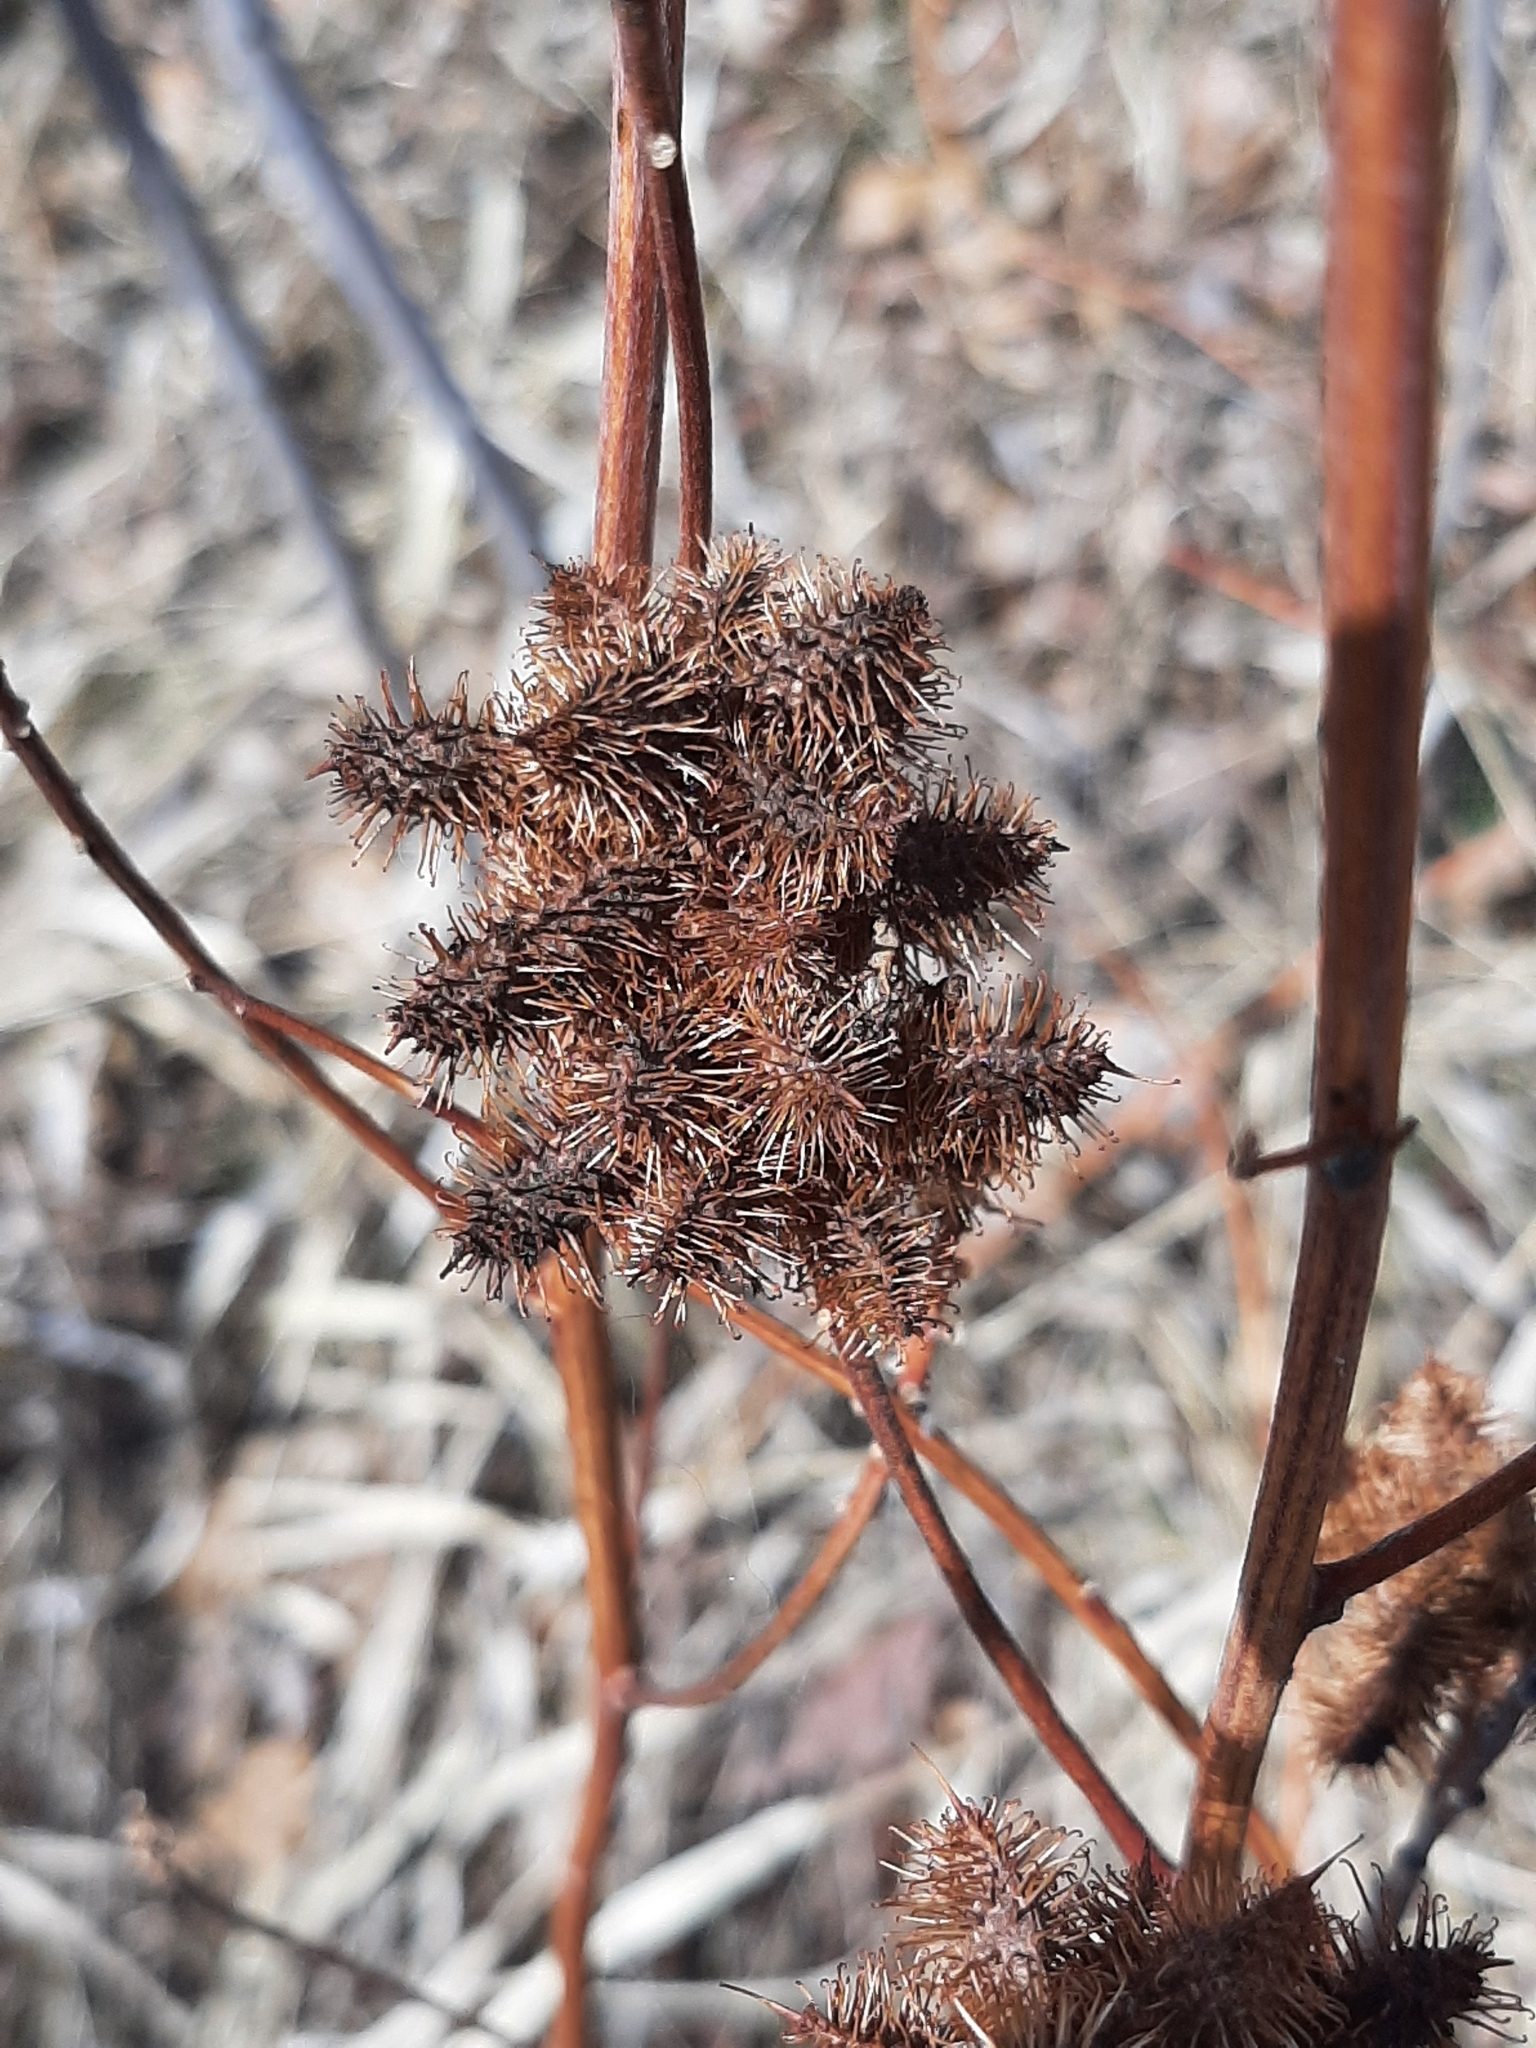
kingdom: Plantae
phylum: Tracheophyta
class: Magnoliopsida
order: Fabales
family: Fabaceae
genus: Glycyrrhiza
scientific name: Glycyrrhiza lepidota
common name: American liquorice
